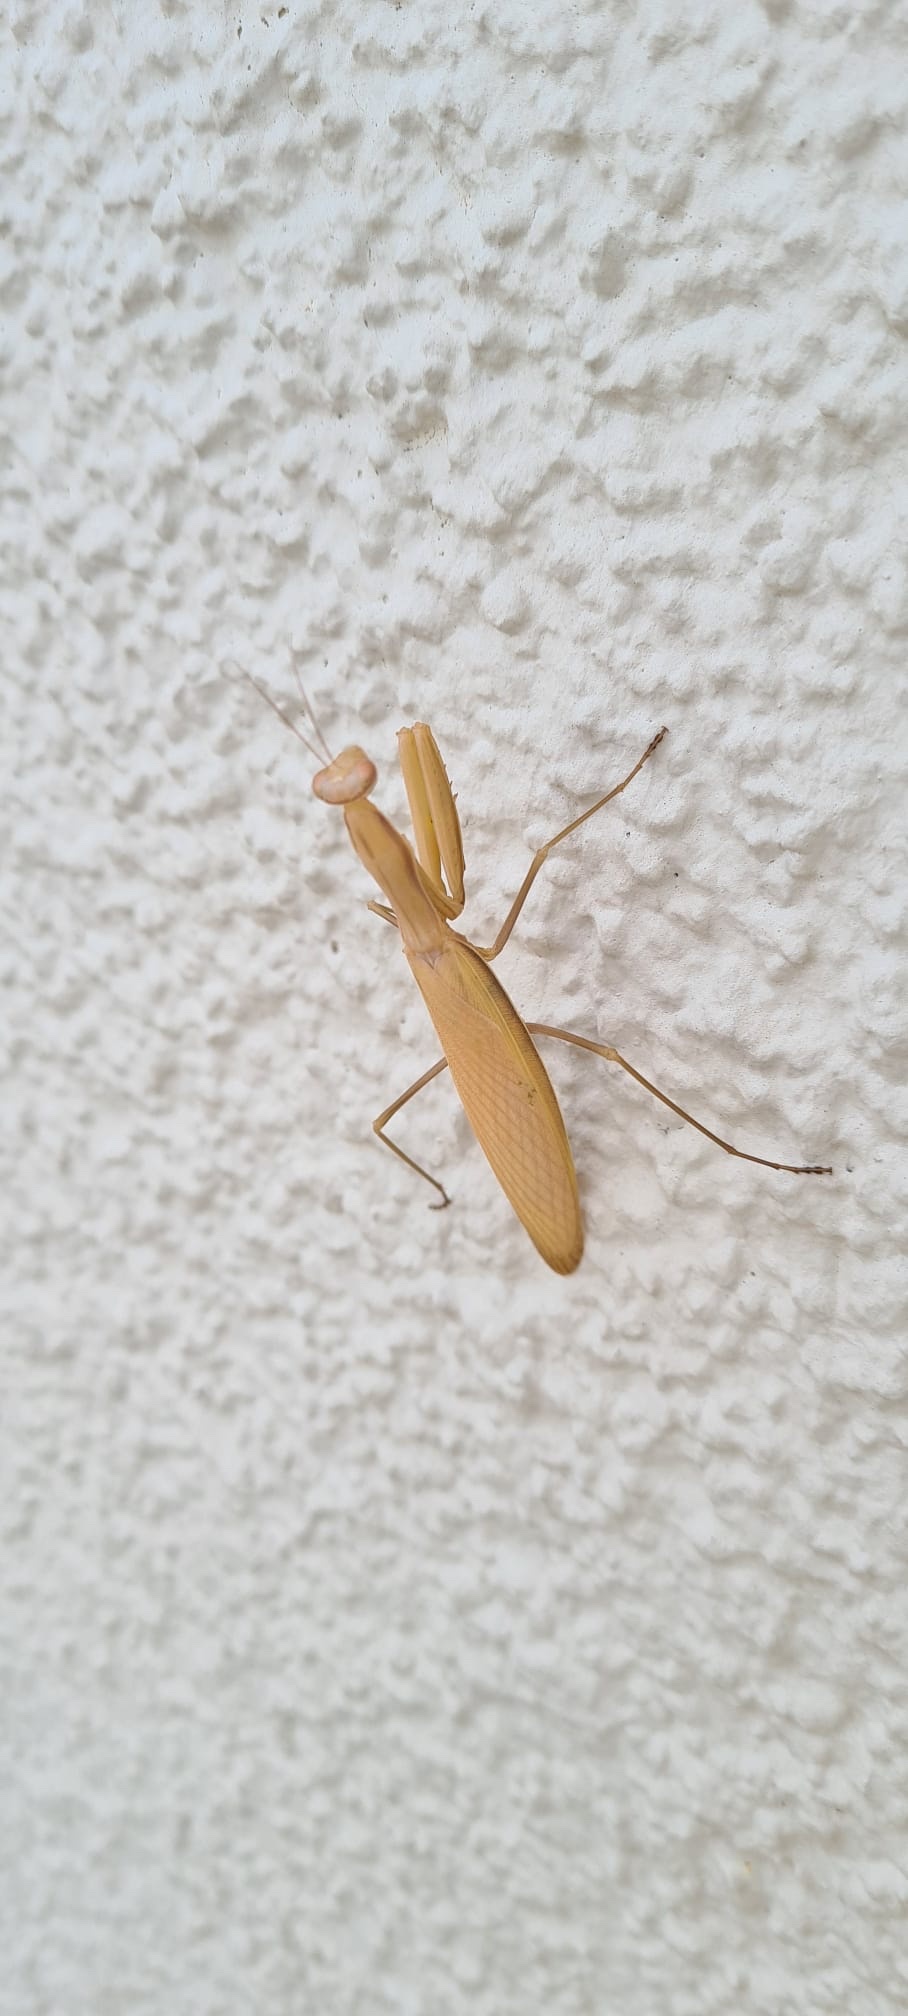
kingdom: Animalia
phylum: Arthropoda
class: Insecta
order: Mantodea
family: Mantidae
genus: Mantis
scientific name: Mantis religiosa
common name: Praying mantis
